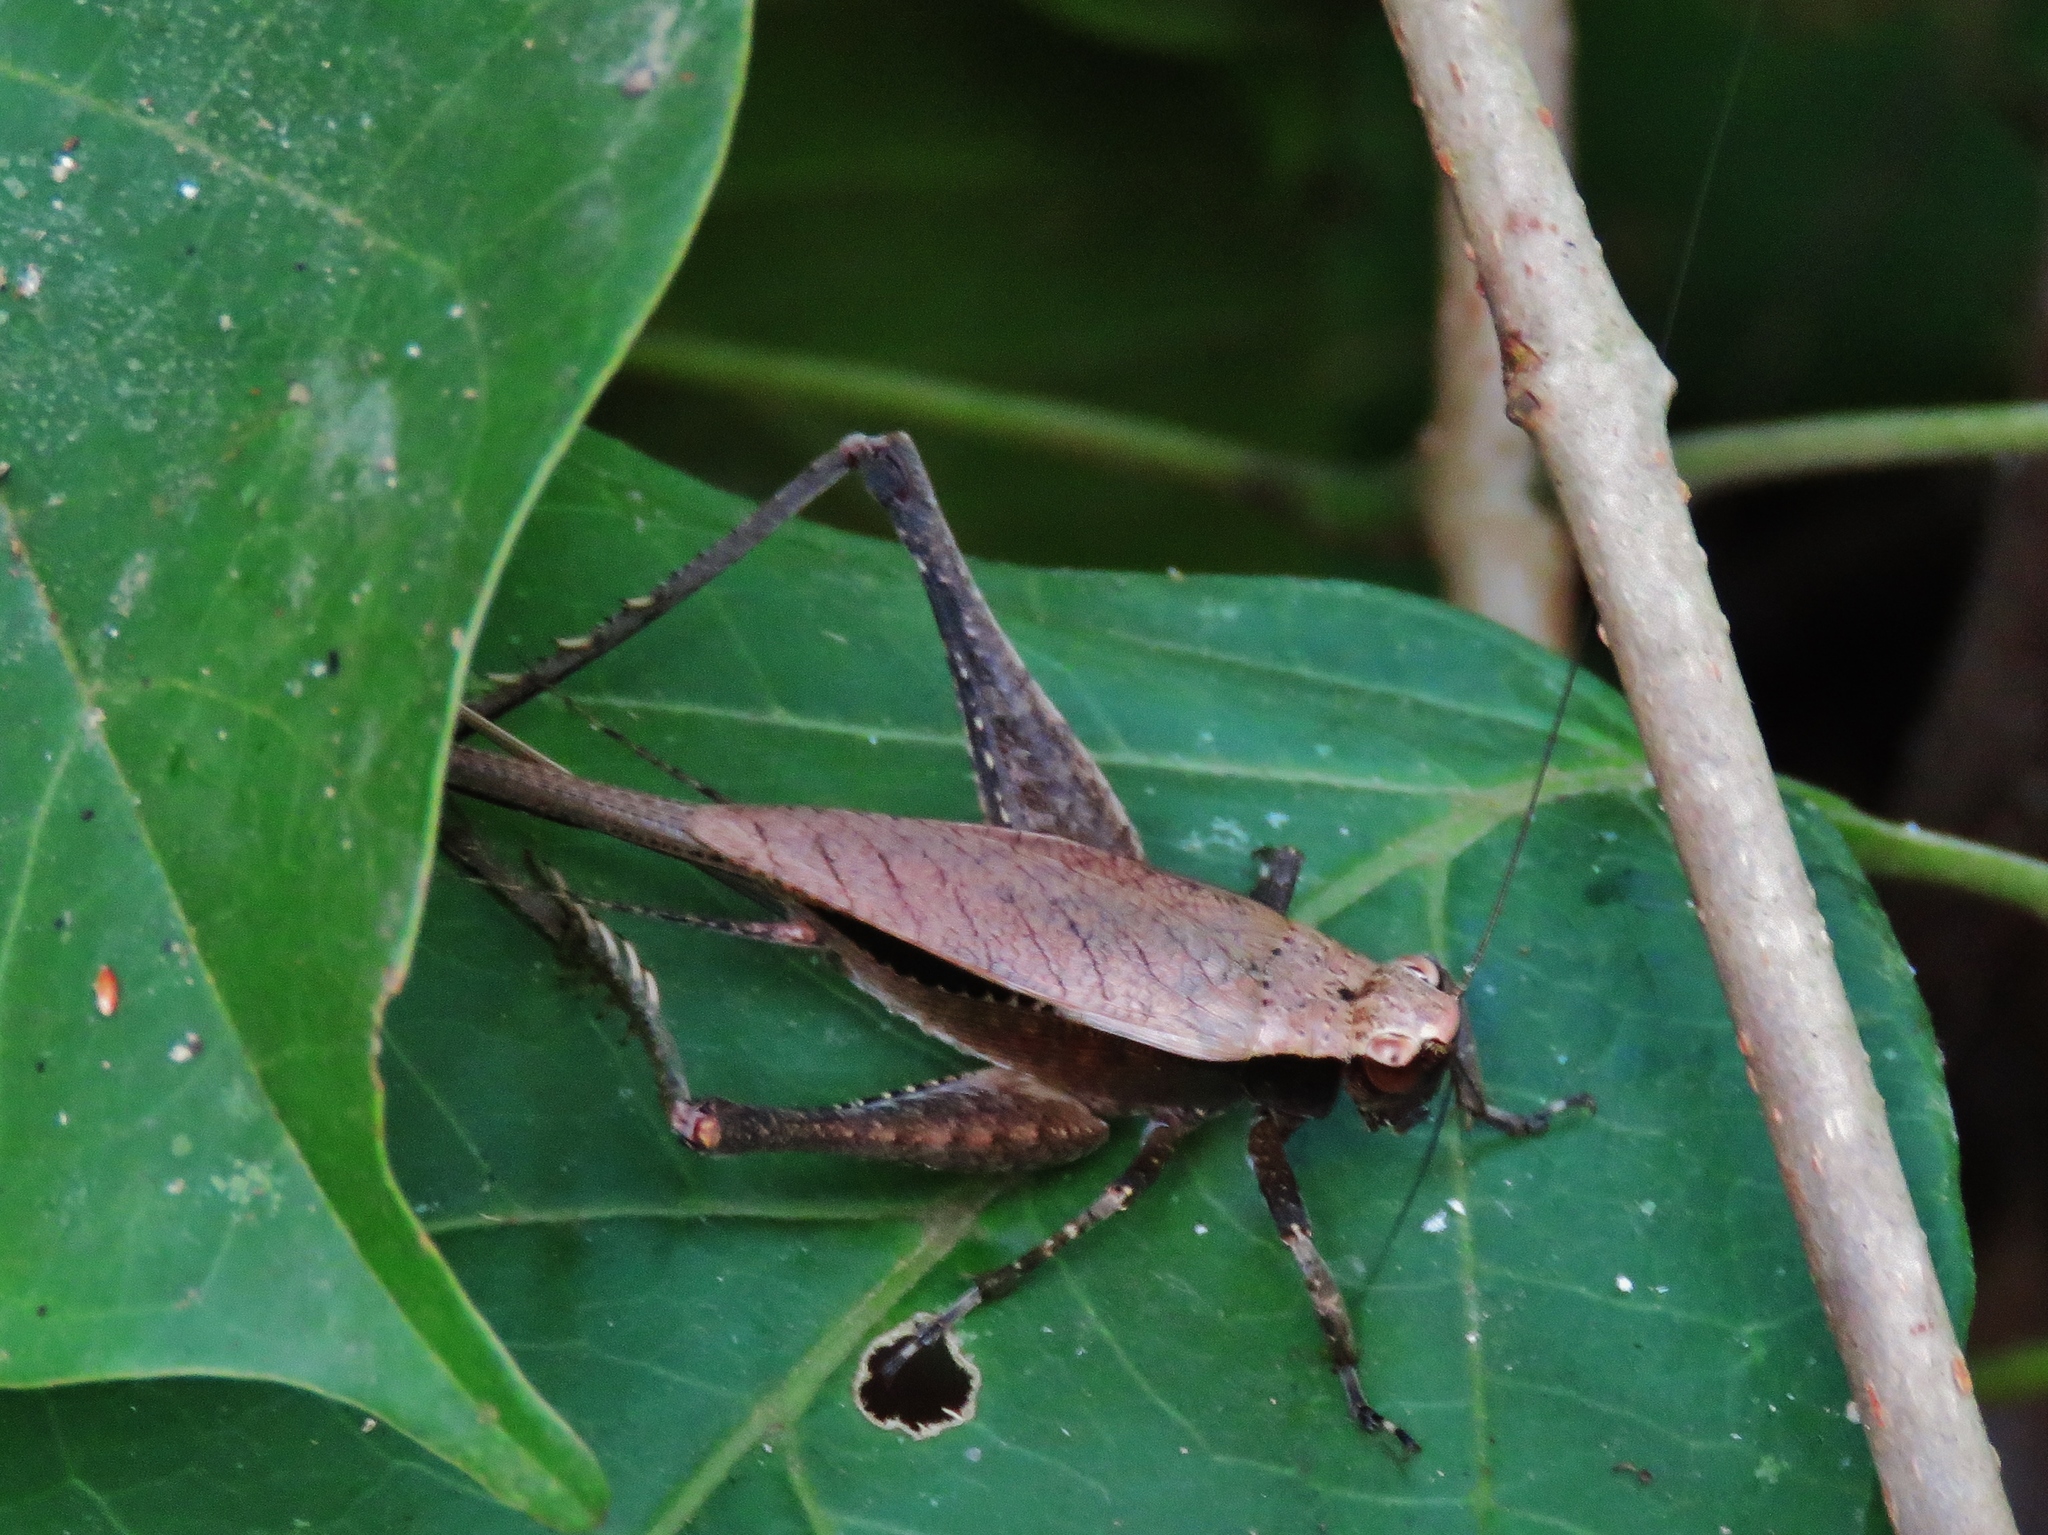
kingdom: Animalia
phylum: Arthropoda
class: Insecta
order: Orthoptera
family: Gryllidae
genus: Eneoptera
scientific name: Eneoptera surinamensis
